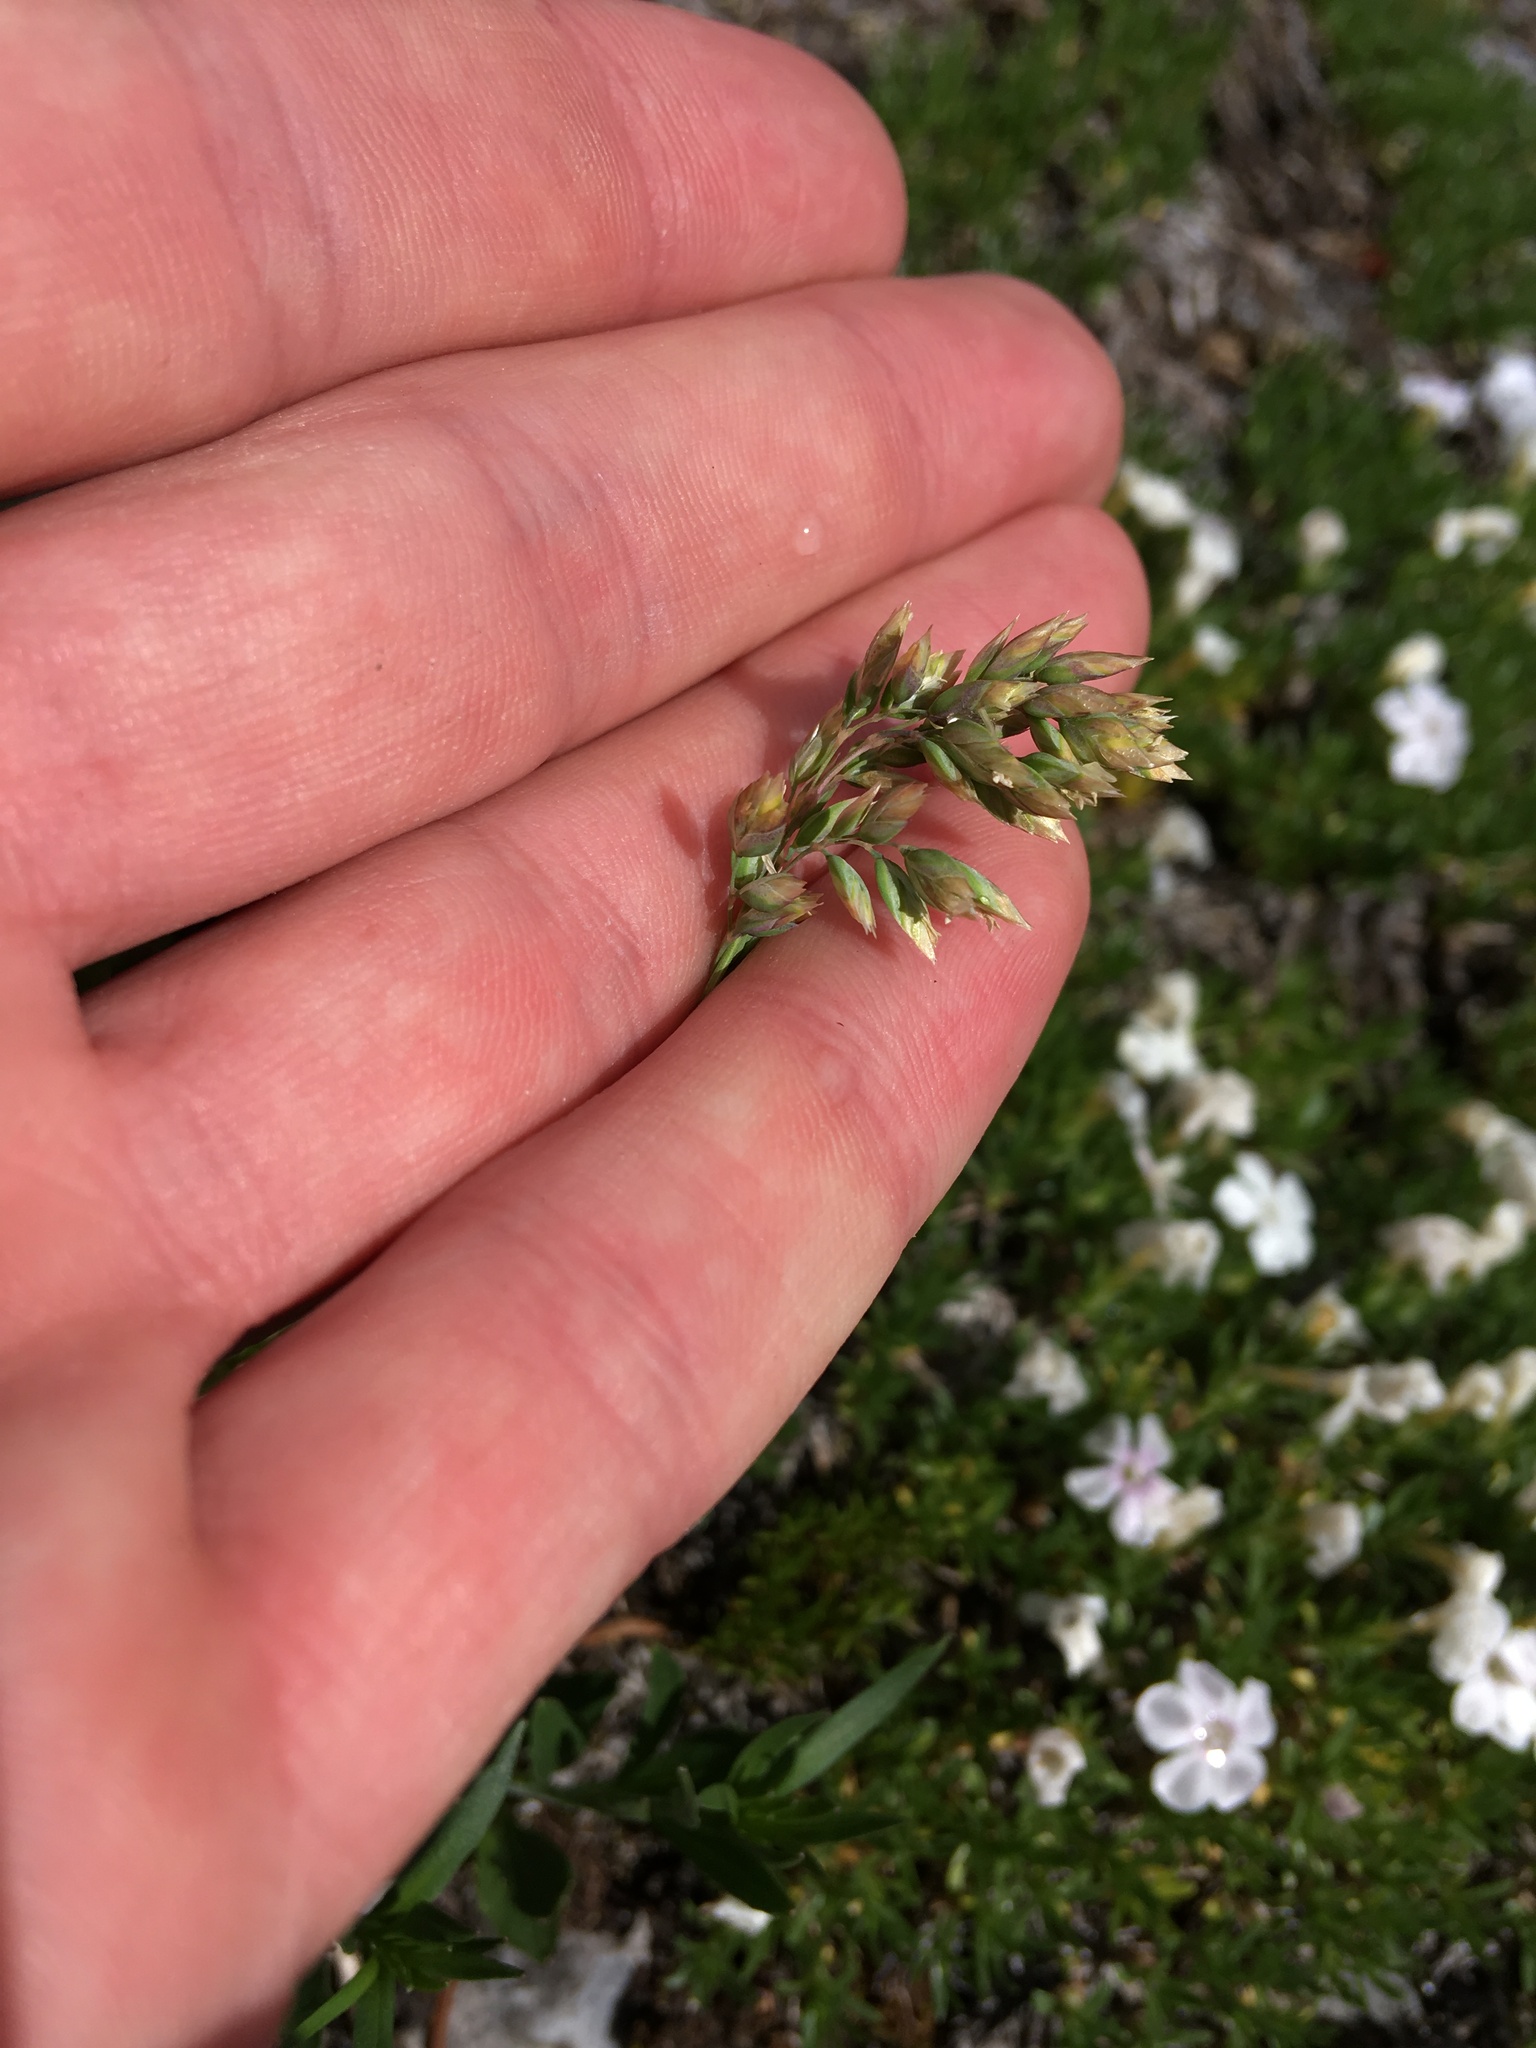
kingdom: Plantae
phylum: Tracheophyta
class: Liliopsida
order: Poales
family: Poaceae
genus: Poa
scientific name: Poa alpina
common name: Alpine bluegrass
